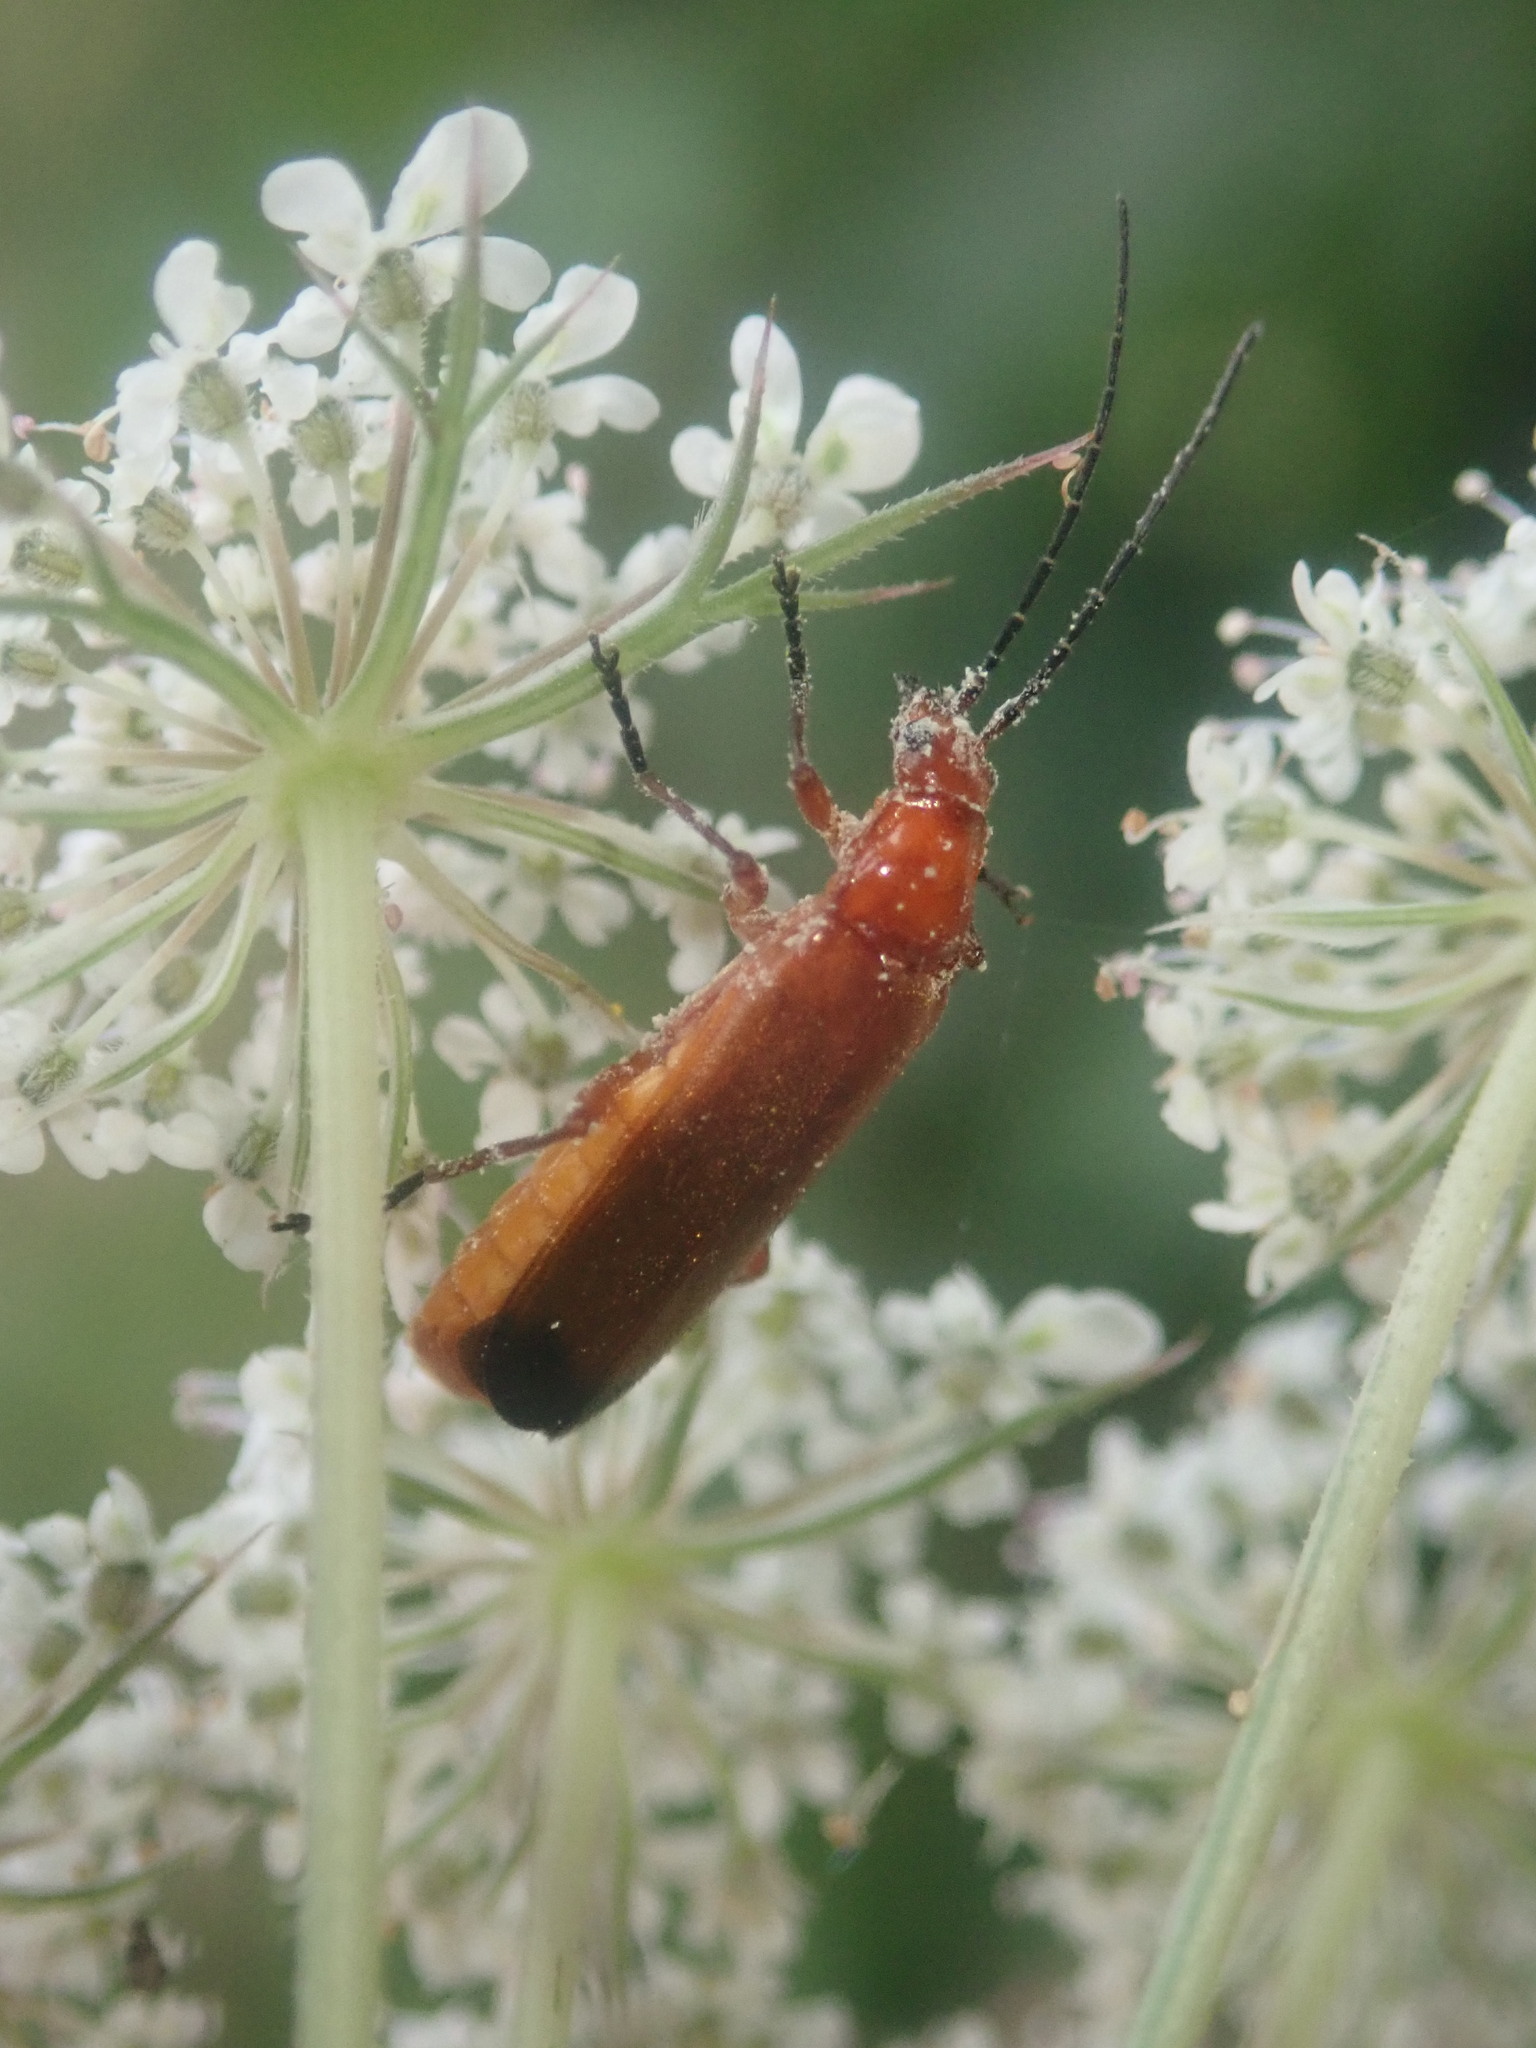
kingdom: Animalia
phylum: Arthropoda
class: Insecta
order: Coleoptera
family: Cantharidae
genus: Rhagonycha
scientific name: Rhagonycha fulva
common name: Common red soldier beetle
